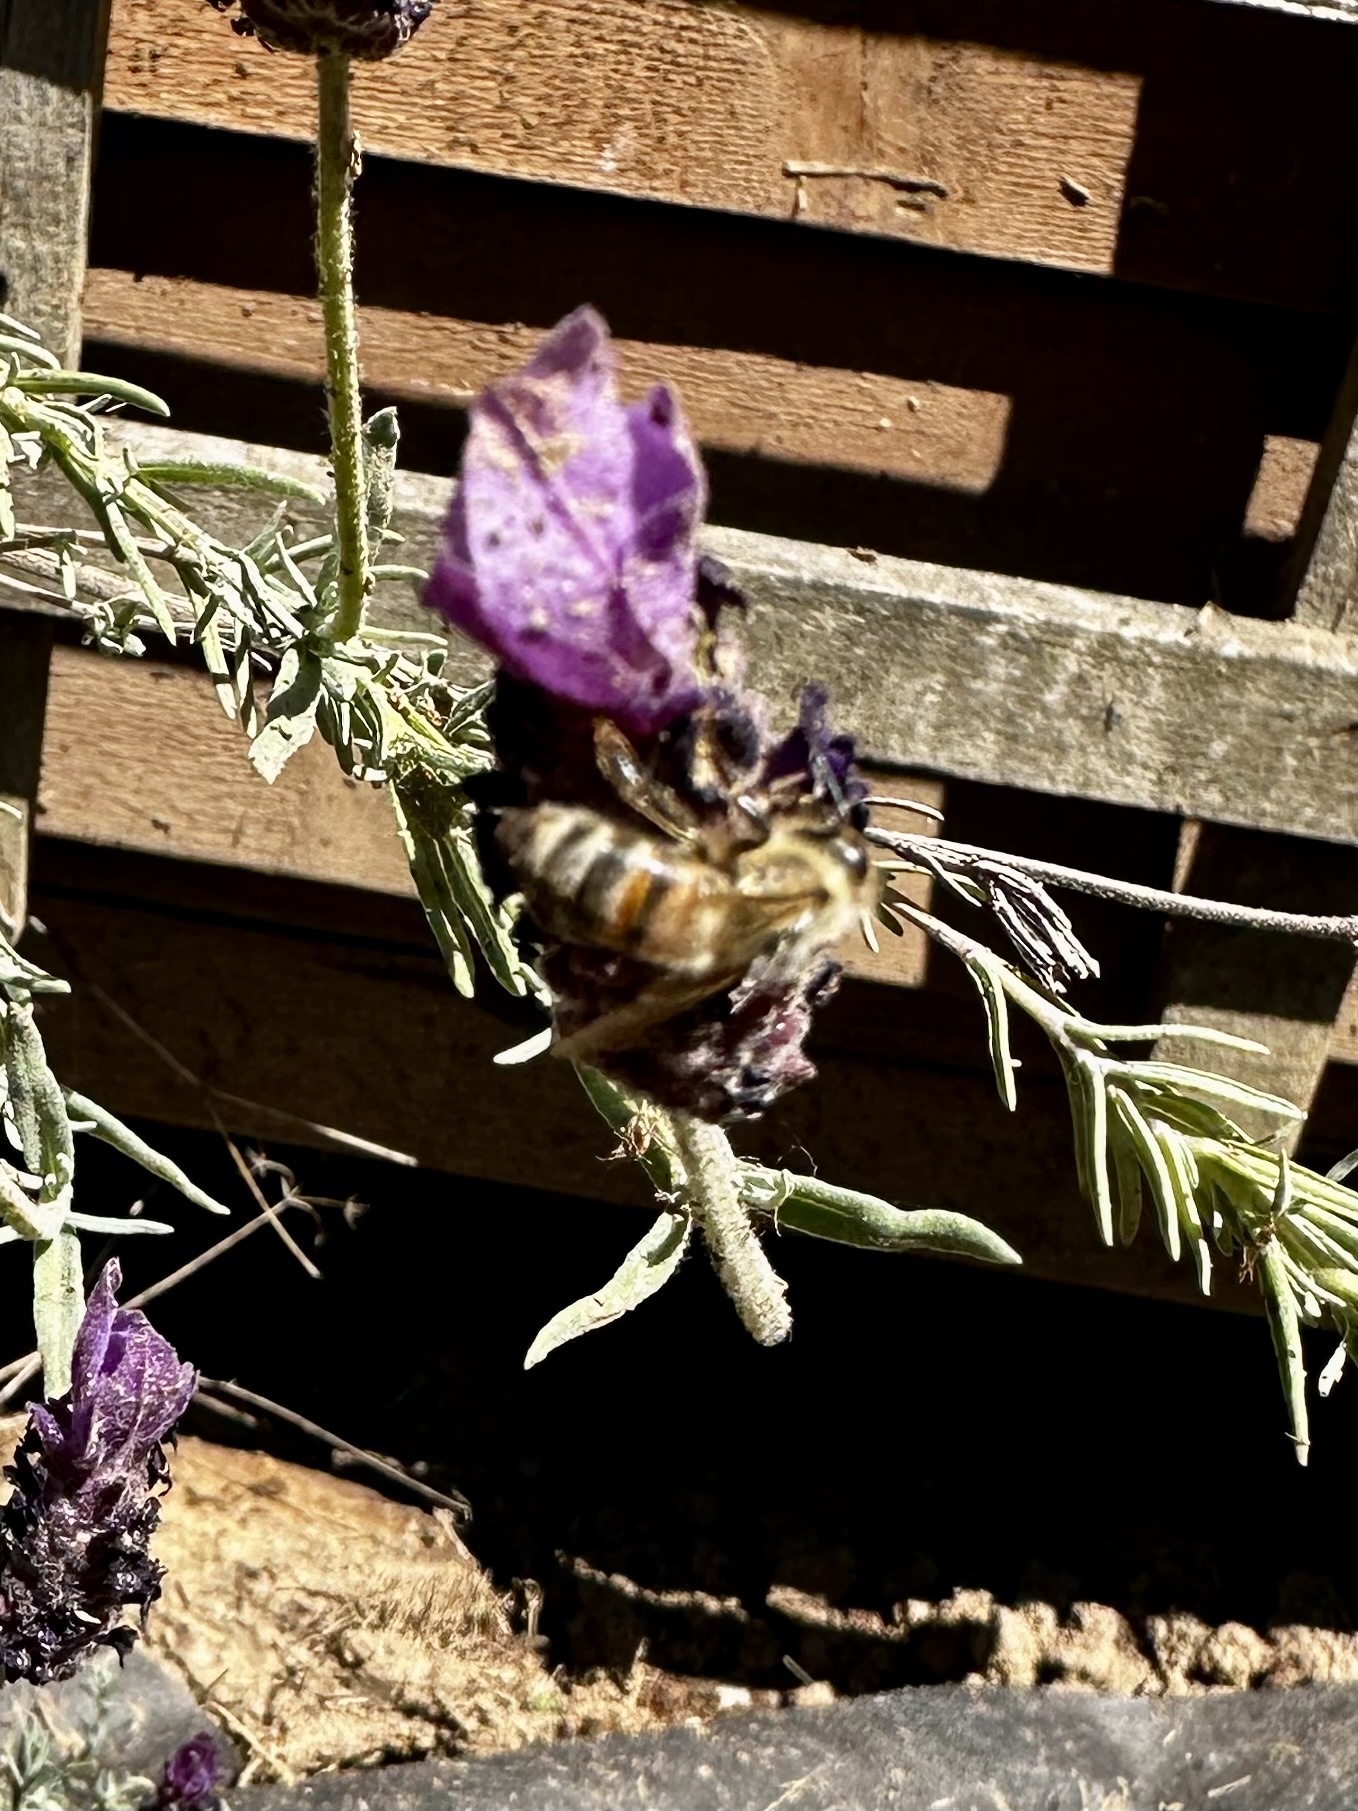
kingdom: Animalia
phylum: Arthropoda
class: Insecta
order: Hymenoptera
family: Apidae
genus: Apis
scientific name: Apis mellifera
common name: Honey bee
